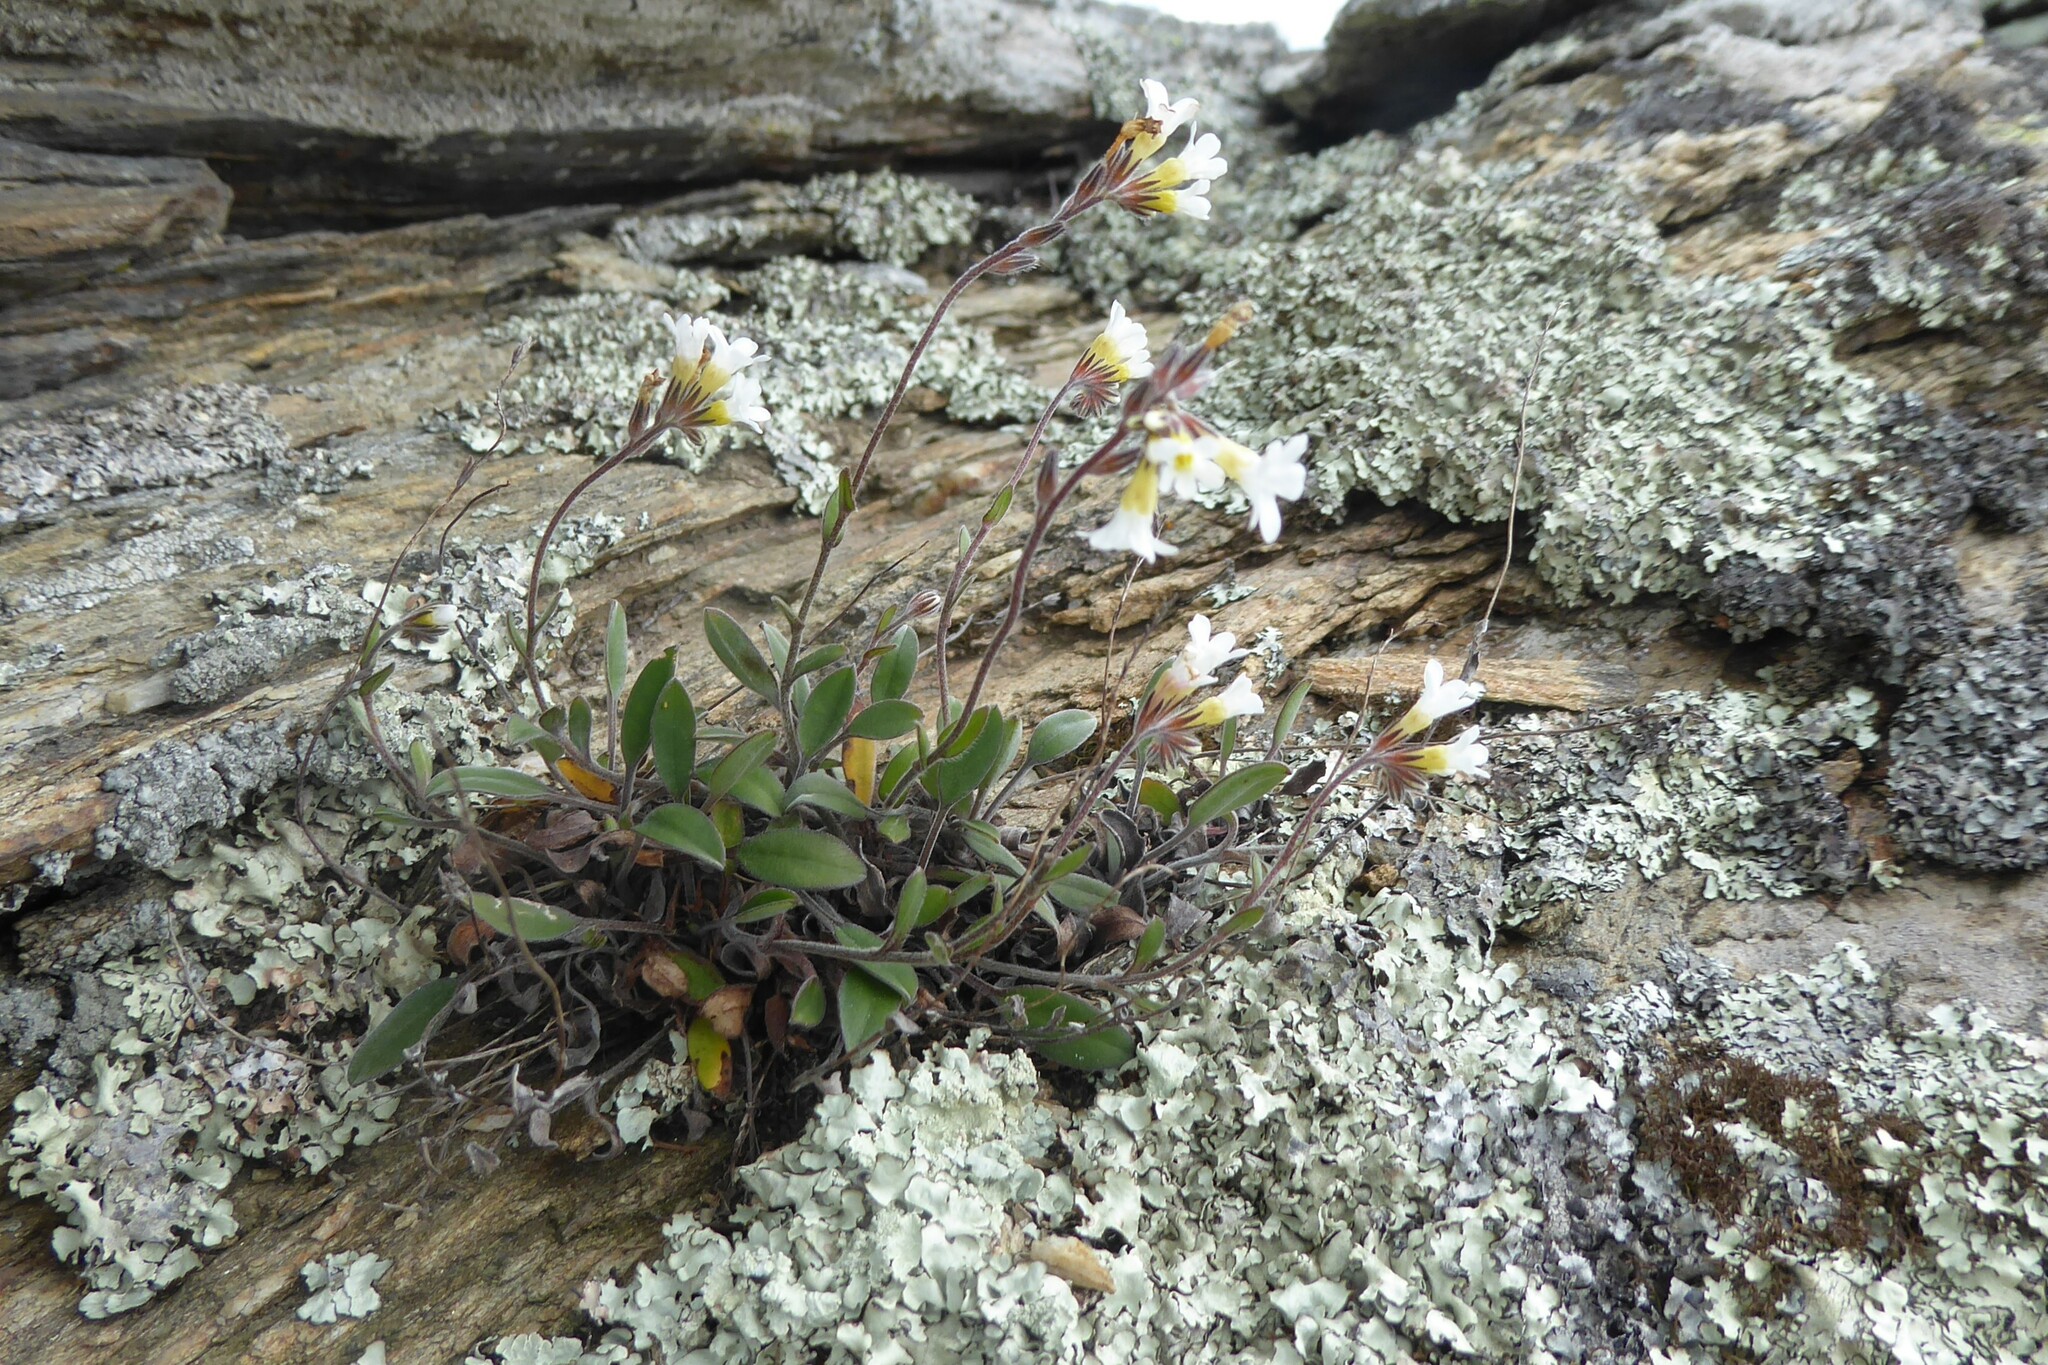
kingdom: Plantae
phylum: Tracheophyta
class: Magnoliopsida
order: Boraginales
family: Boraginaceae
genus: Myosotis
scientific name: Myosotis saxatilis
